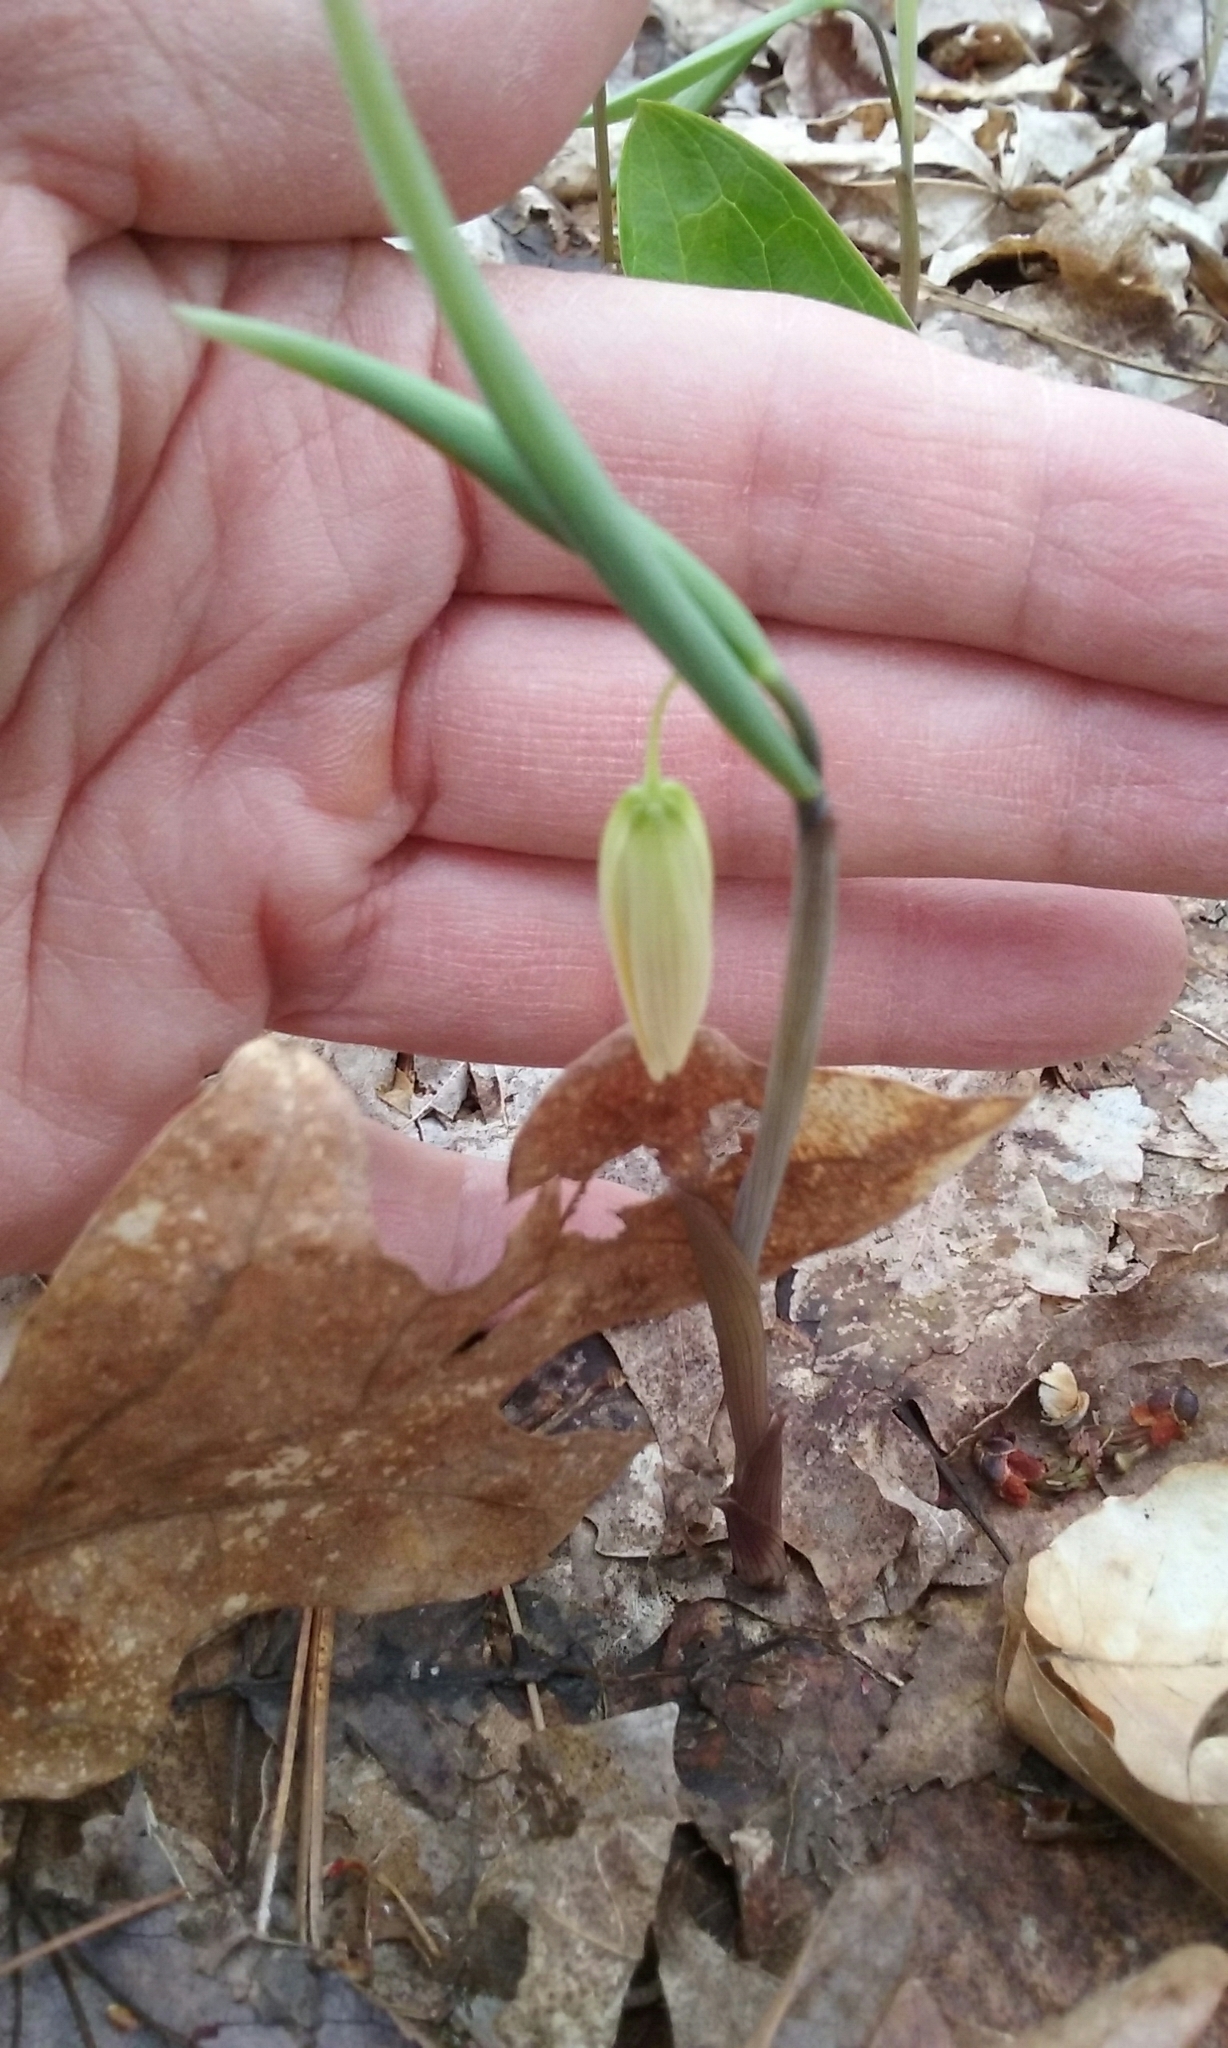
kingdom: Plantae
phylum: Tracheophyta
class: Liliopsida
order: Liliales
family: Colchicaceae
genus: Uvularia
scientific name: Uvularia sessilifolia
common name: Straw-lily
